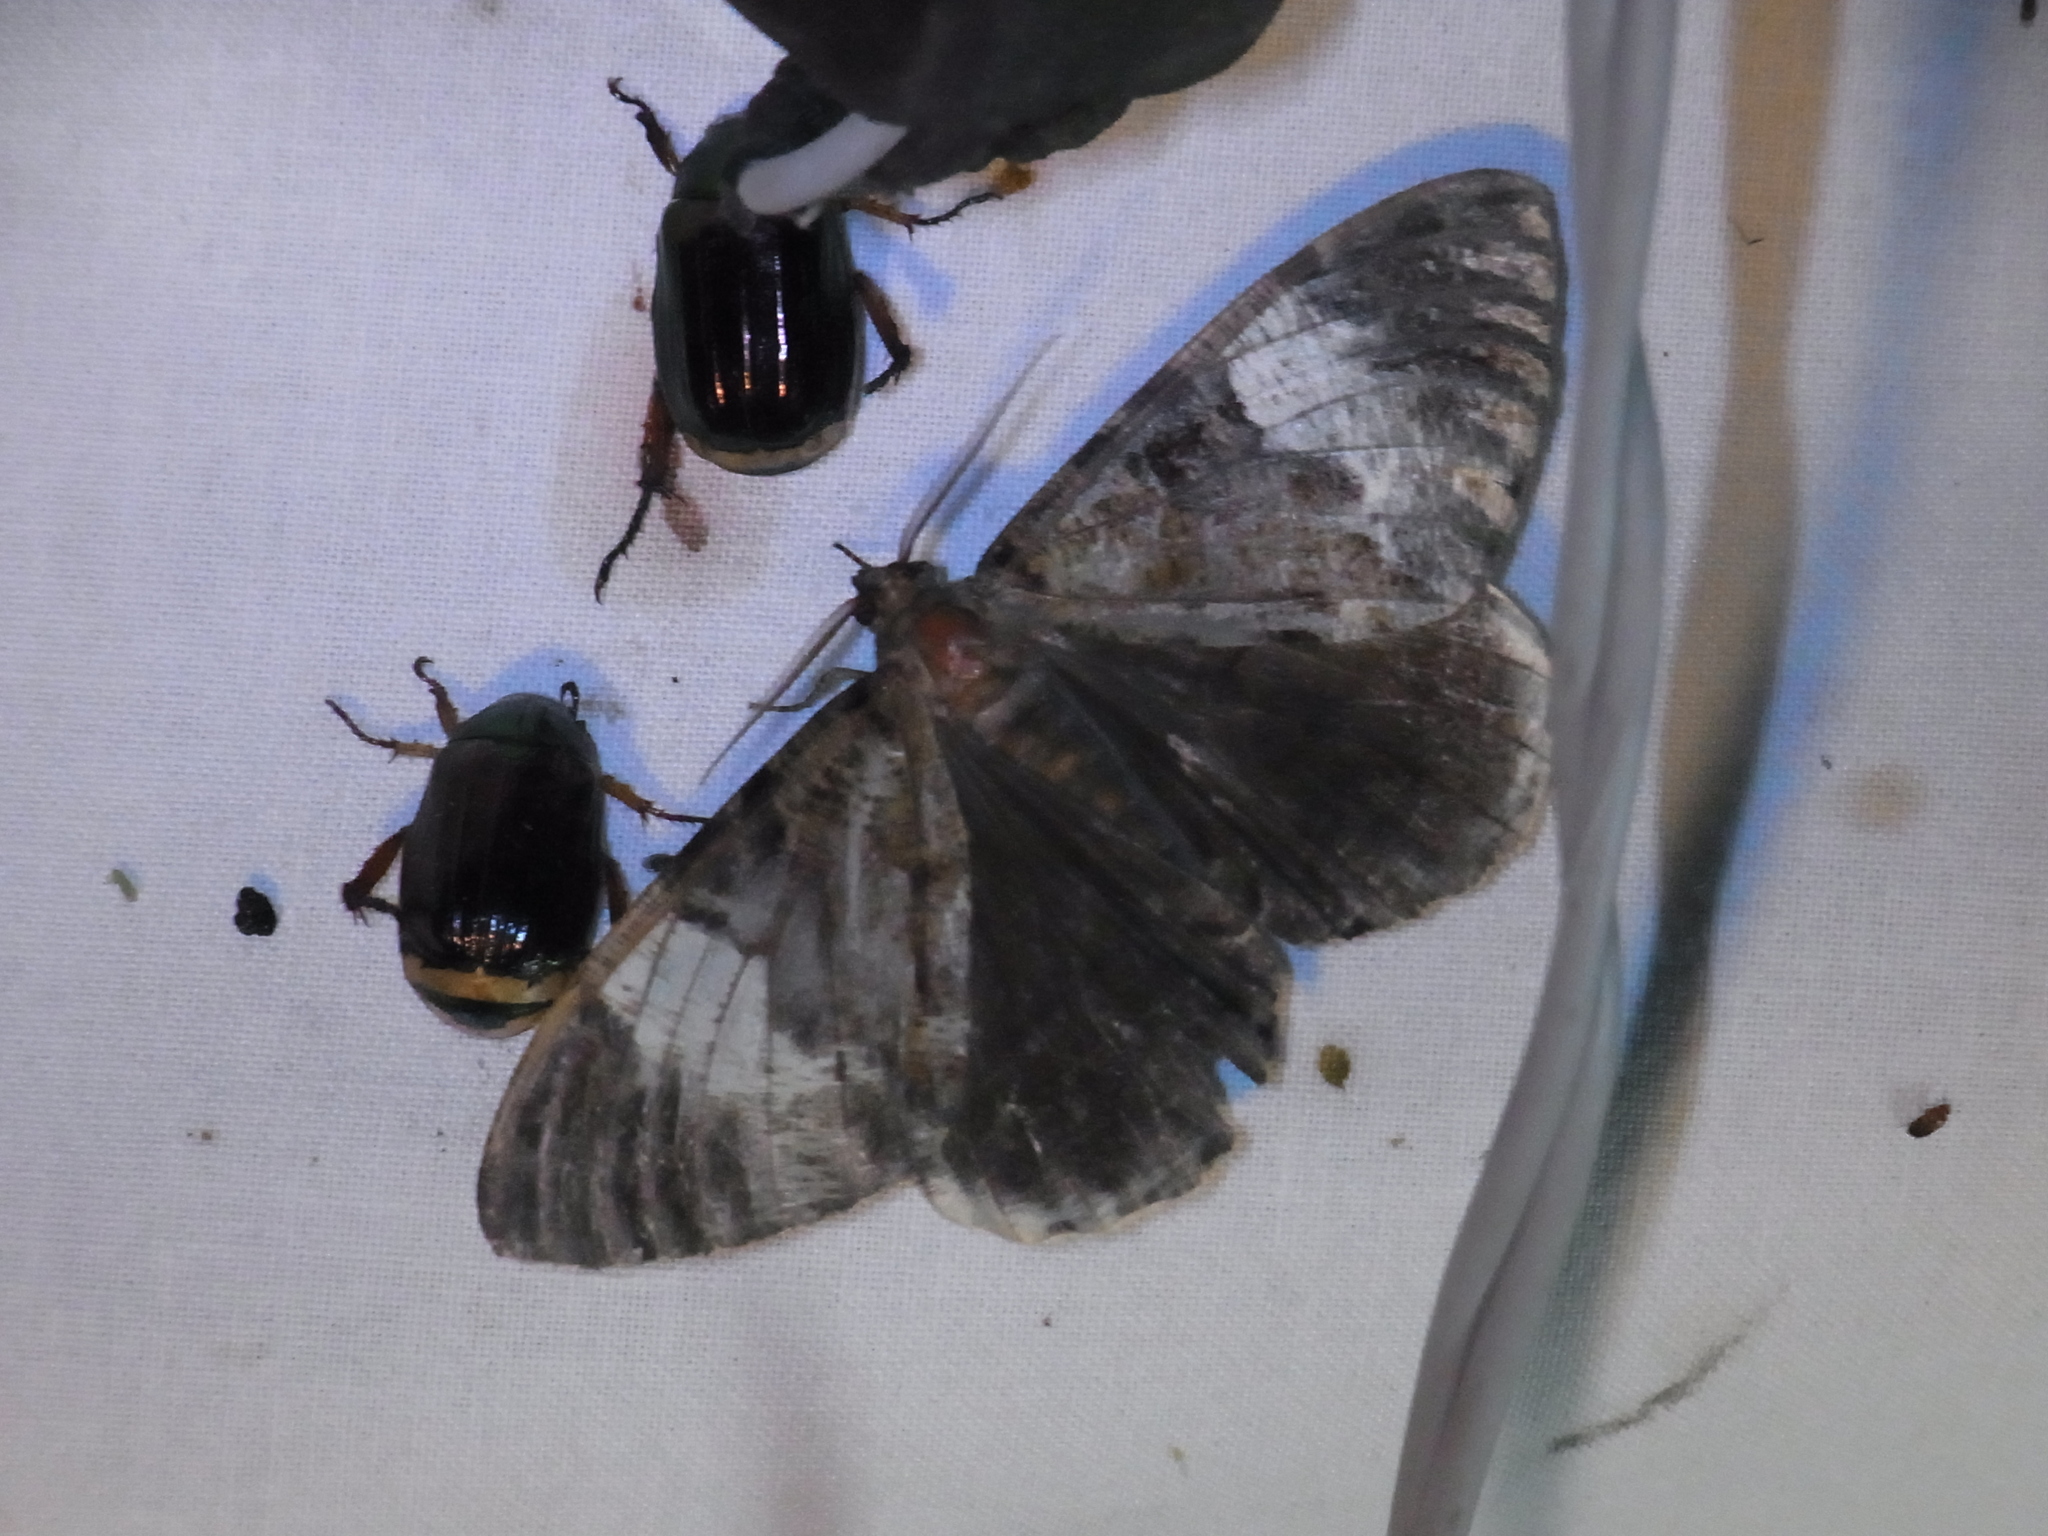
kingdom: Animalia
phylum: Arthropoda
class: Insecta
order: Lepidoptera
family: Geometridae
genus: Xandrames
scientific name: Xandrames dholaria
